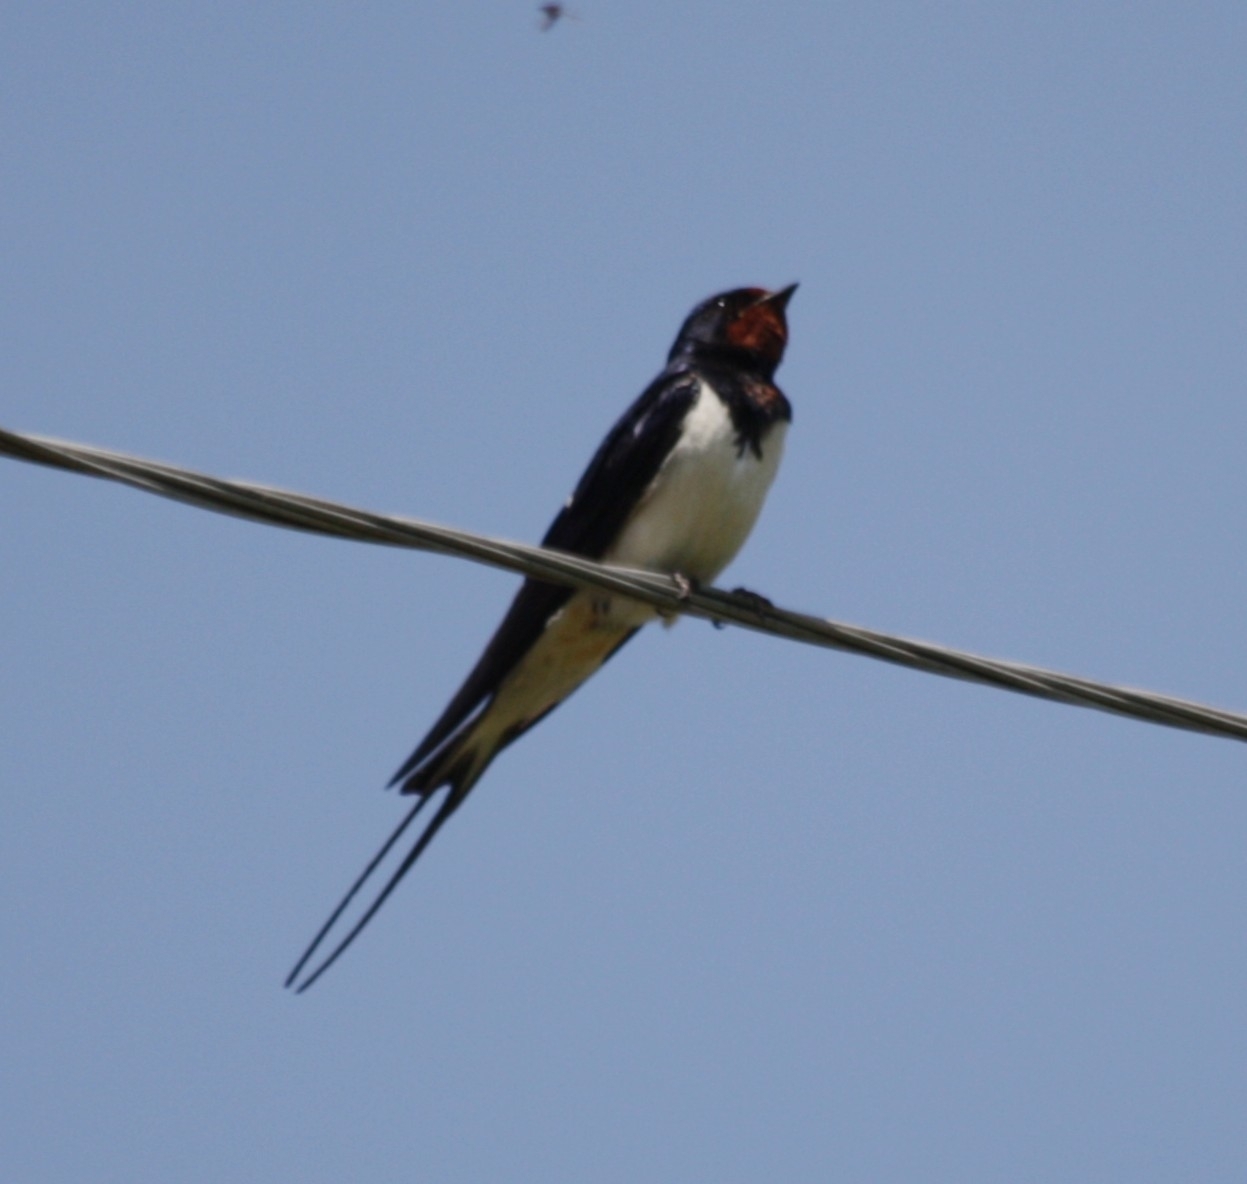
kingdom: Animalia
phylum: Chordata
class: Aves
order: Passeriformes
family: Hirundinidae
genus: Hirundo
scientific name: Hirundo rustica
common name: Barn swallow
